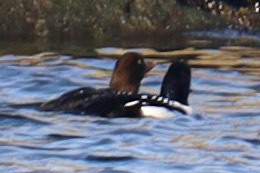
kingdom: Animalia
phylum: Chordata
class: Aves
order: Anseriformes
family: Anatidae
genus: Bucephala
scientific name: Bucephala islandica
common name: Barrow's goldeneye
